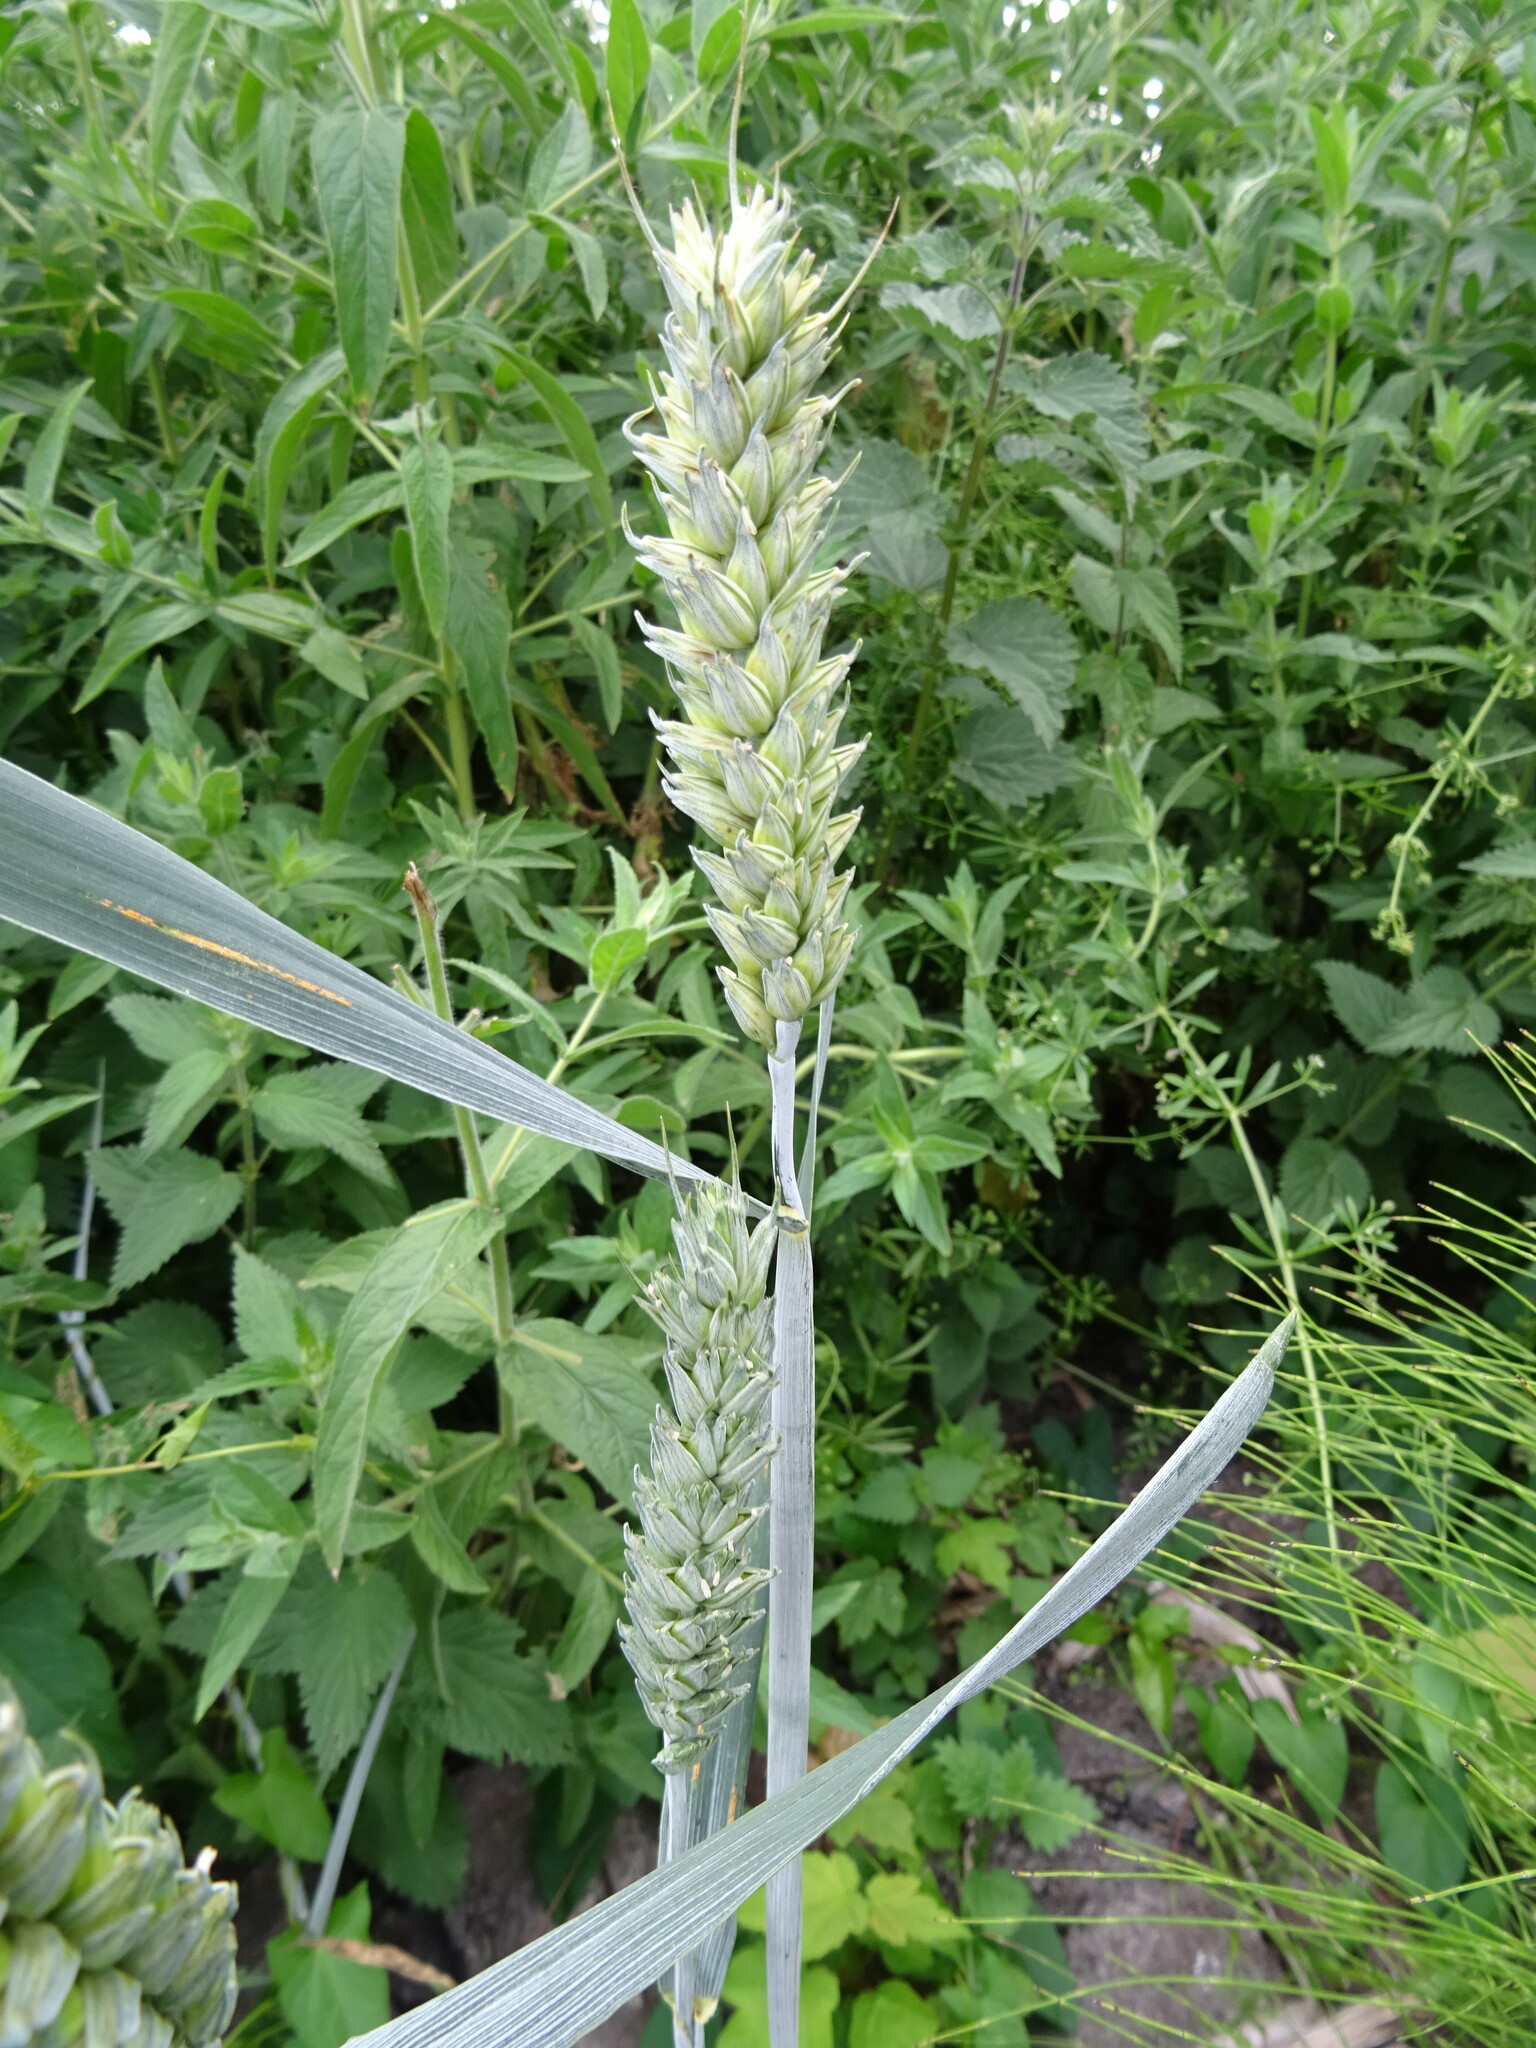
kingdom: Plantae
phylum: Tracheophyta
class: Liliopsida
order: Poales
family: Poaceae
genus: Triticum
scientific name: Triticum aestivum
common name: Common wheat
